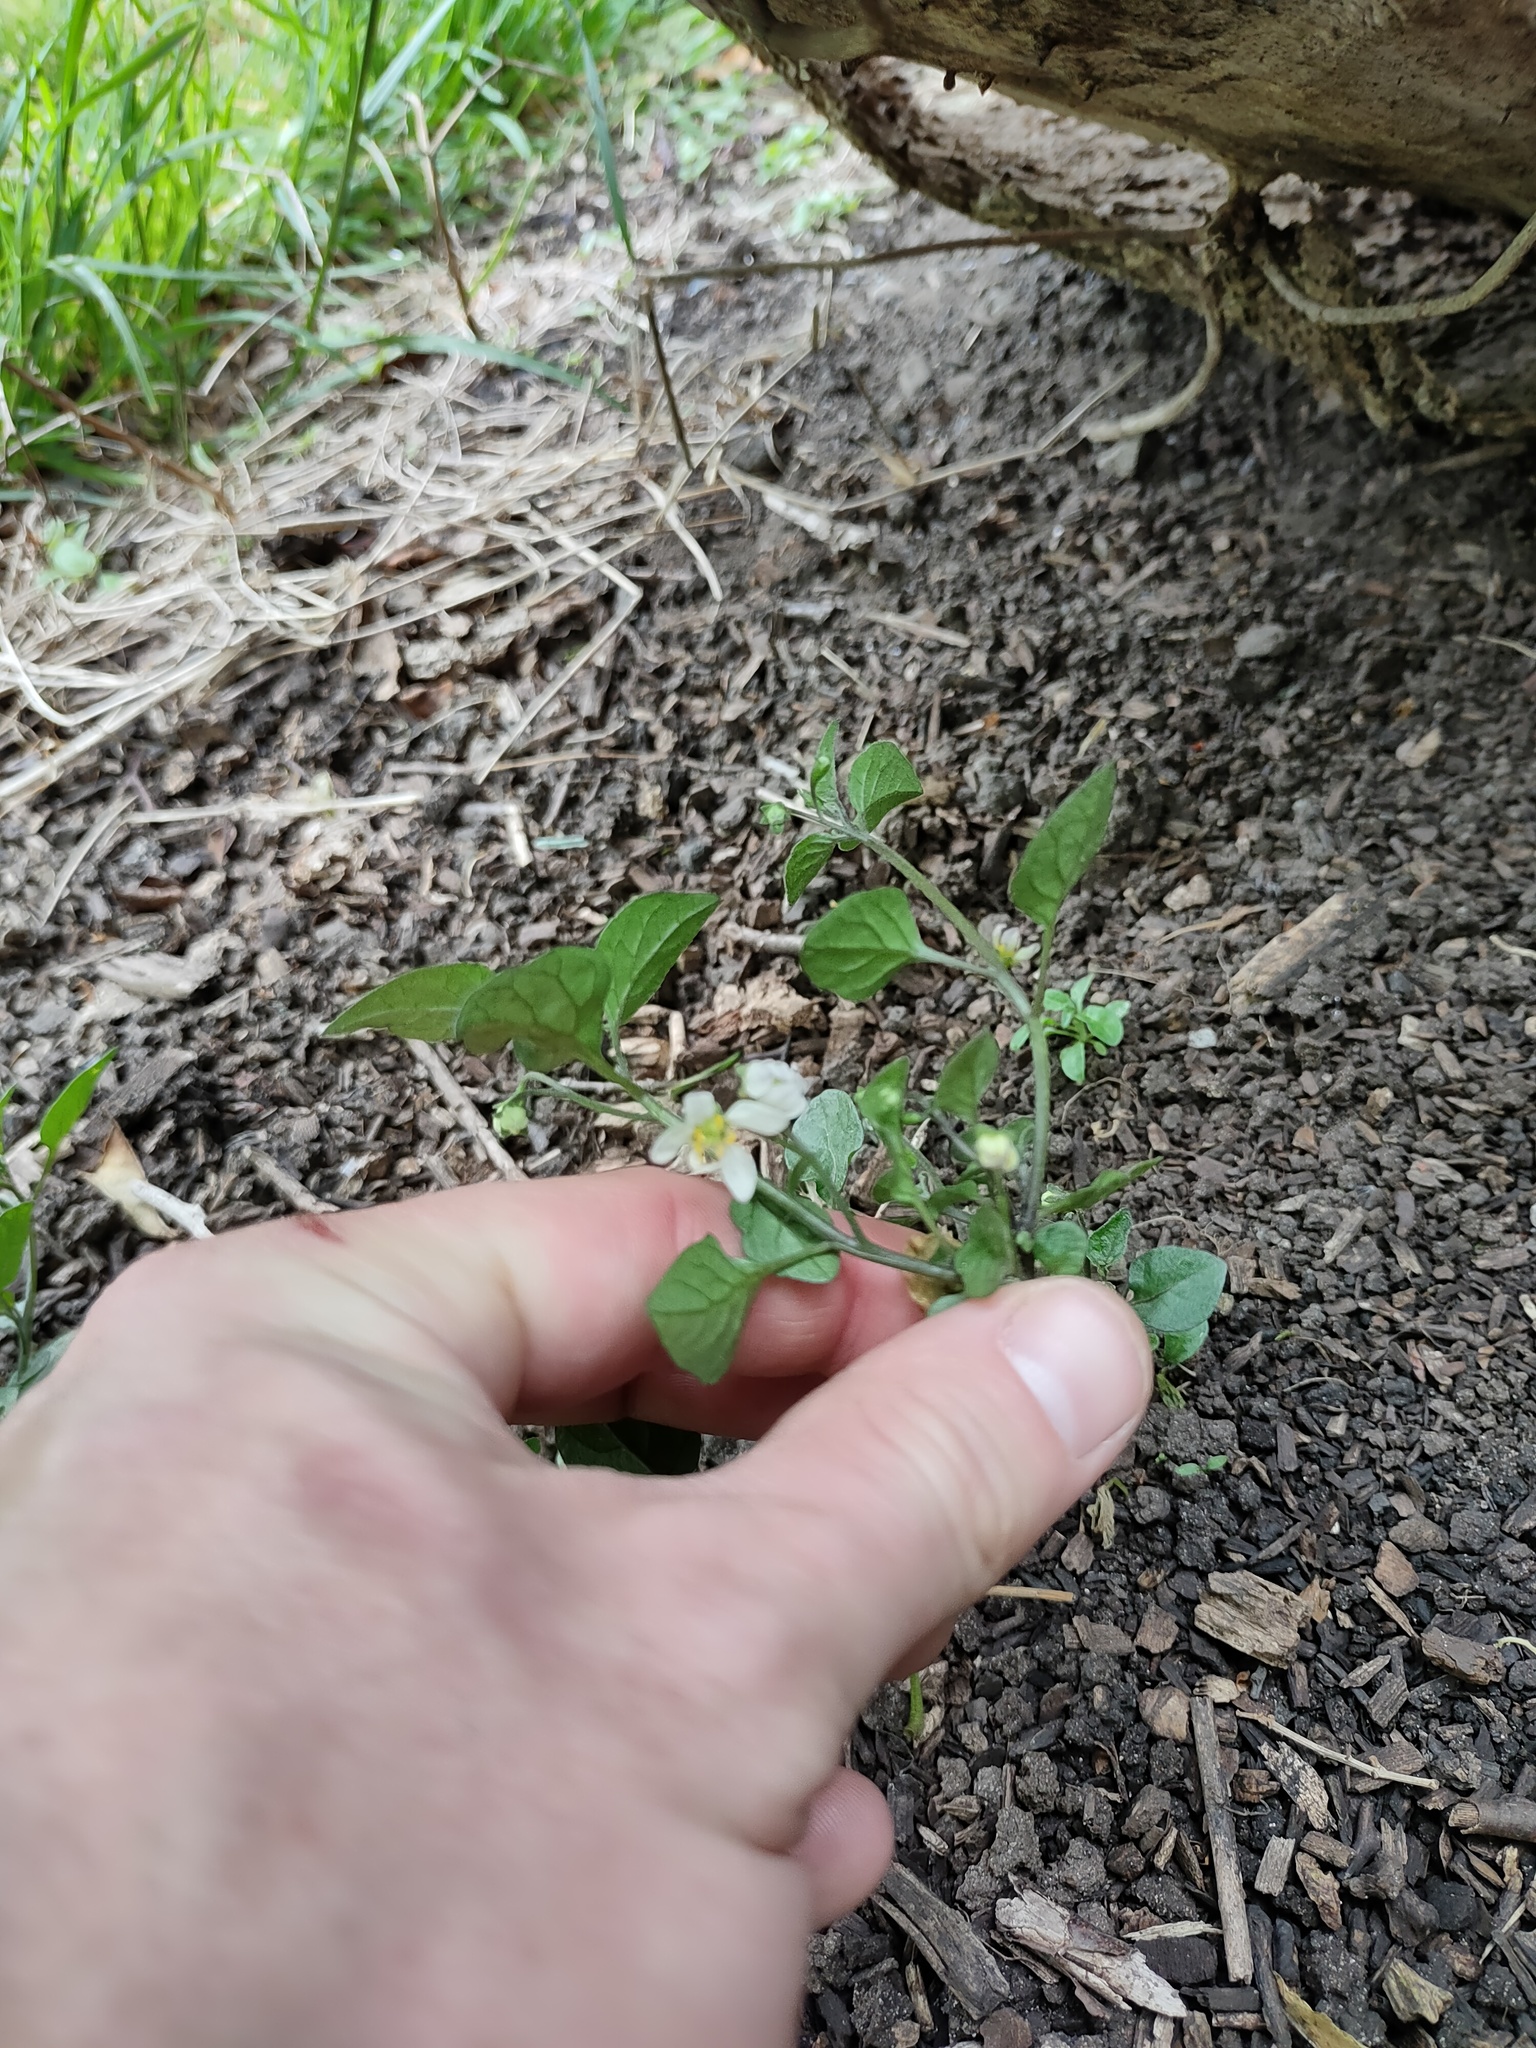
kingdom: Plantae
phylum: Tracheophyta
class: Magnoliopsida
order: Solanales
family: Solanaceae
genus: Solanum
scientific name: Solanum nigrum
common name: Black nightshade
